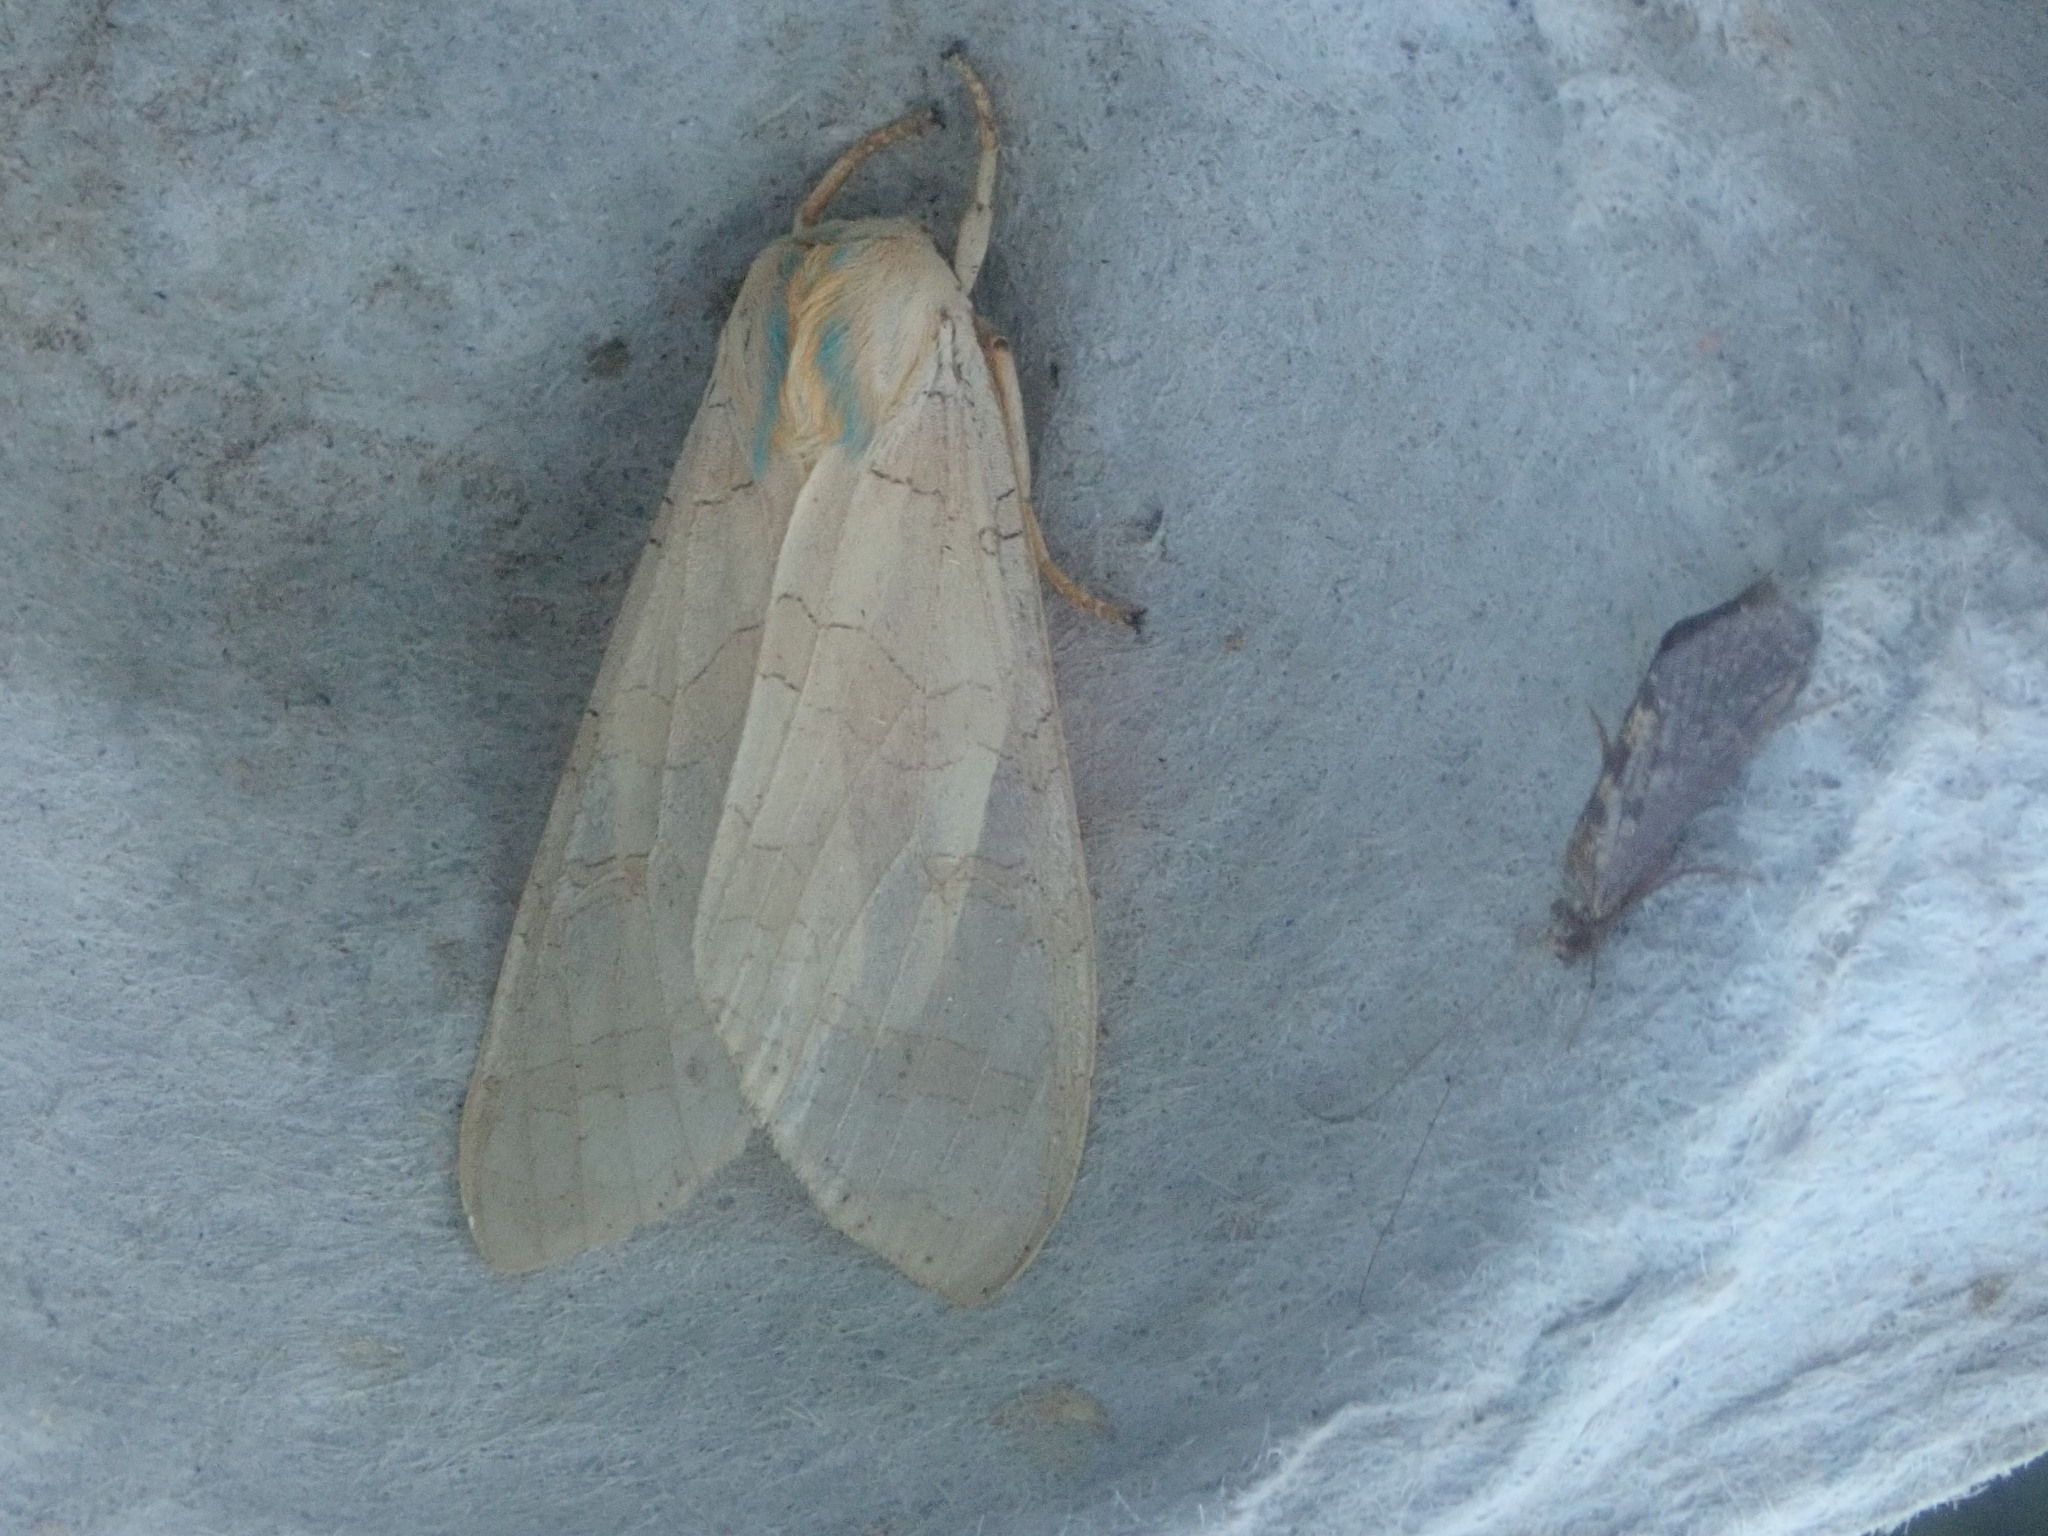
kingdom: Animalia
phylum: Arthropoda
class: Insecta
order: Lepidoptera
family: Erebidae
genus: Halysidota
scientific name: Halysidota
